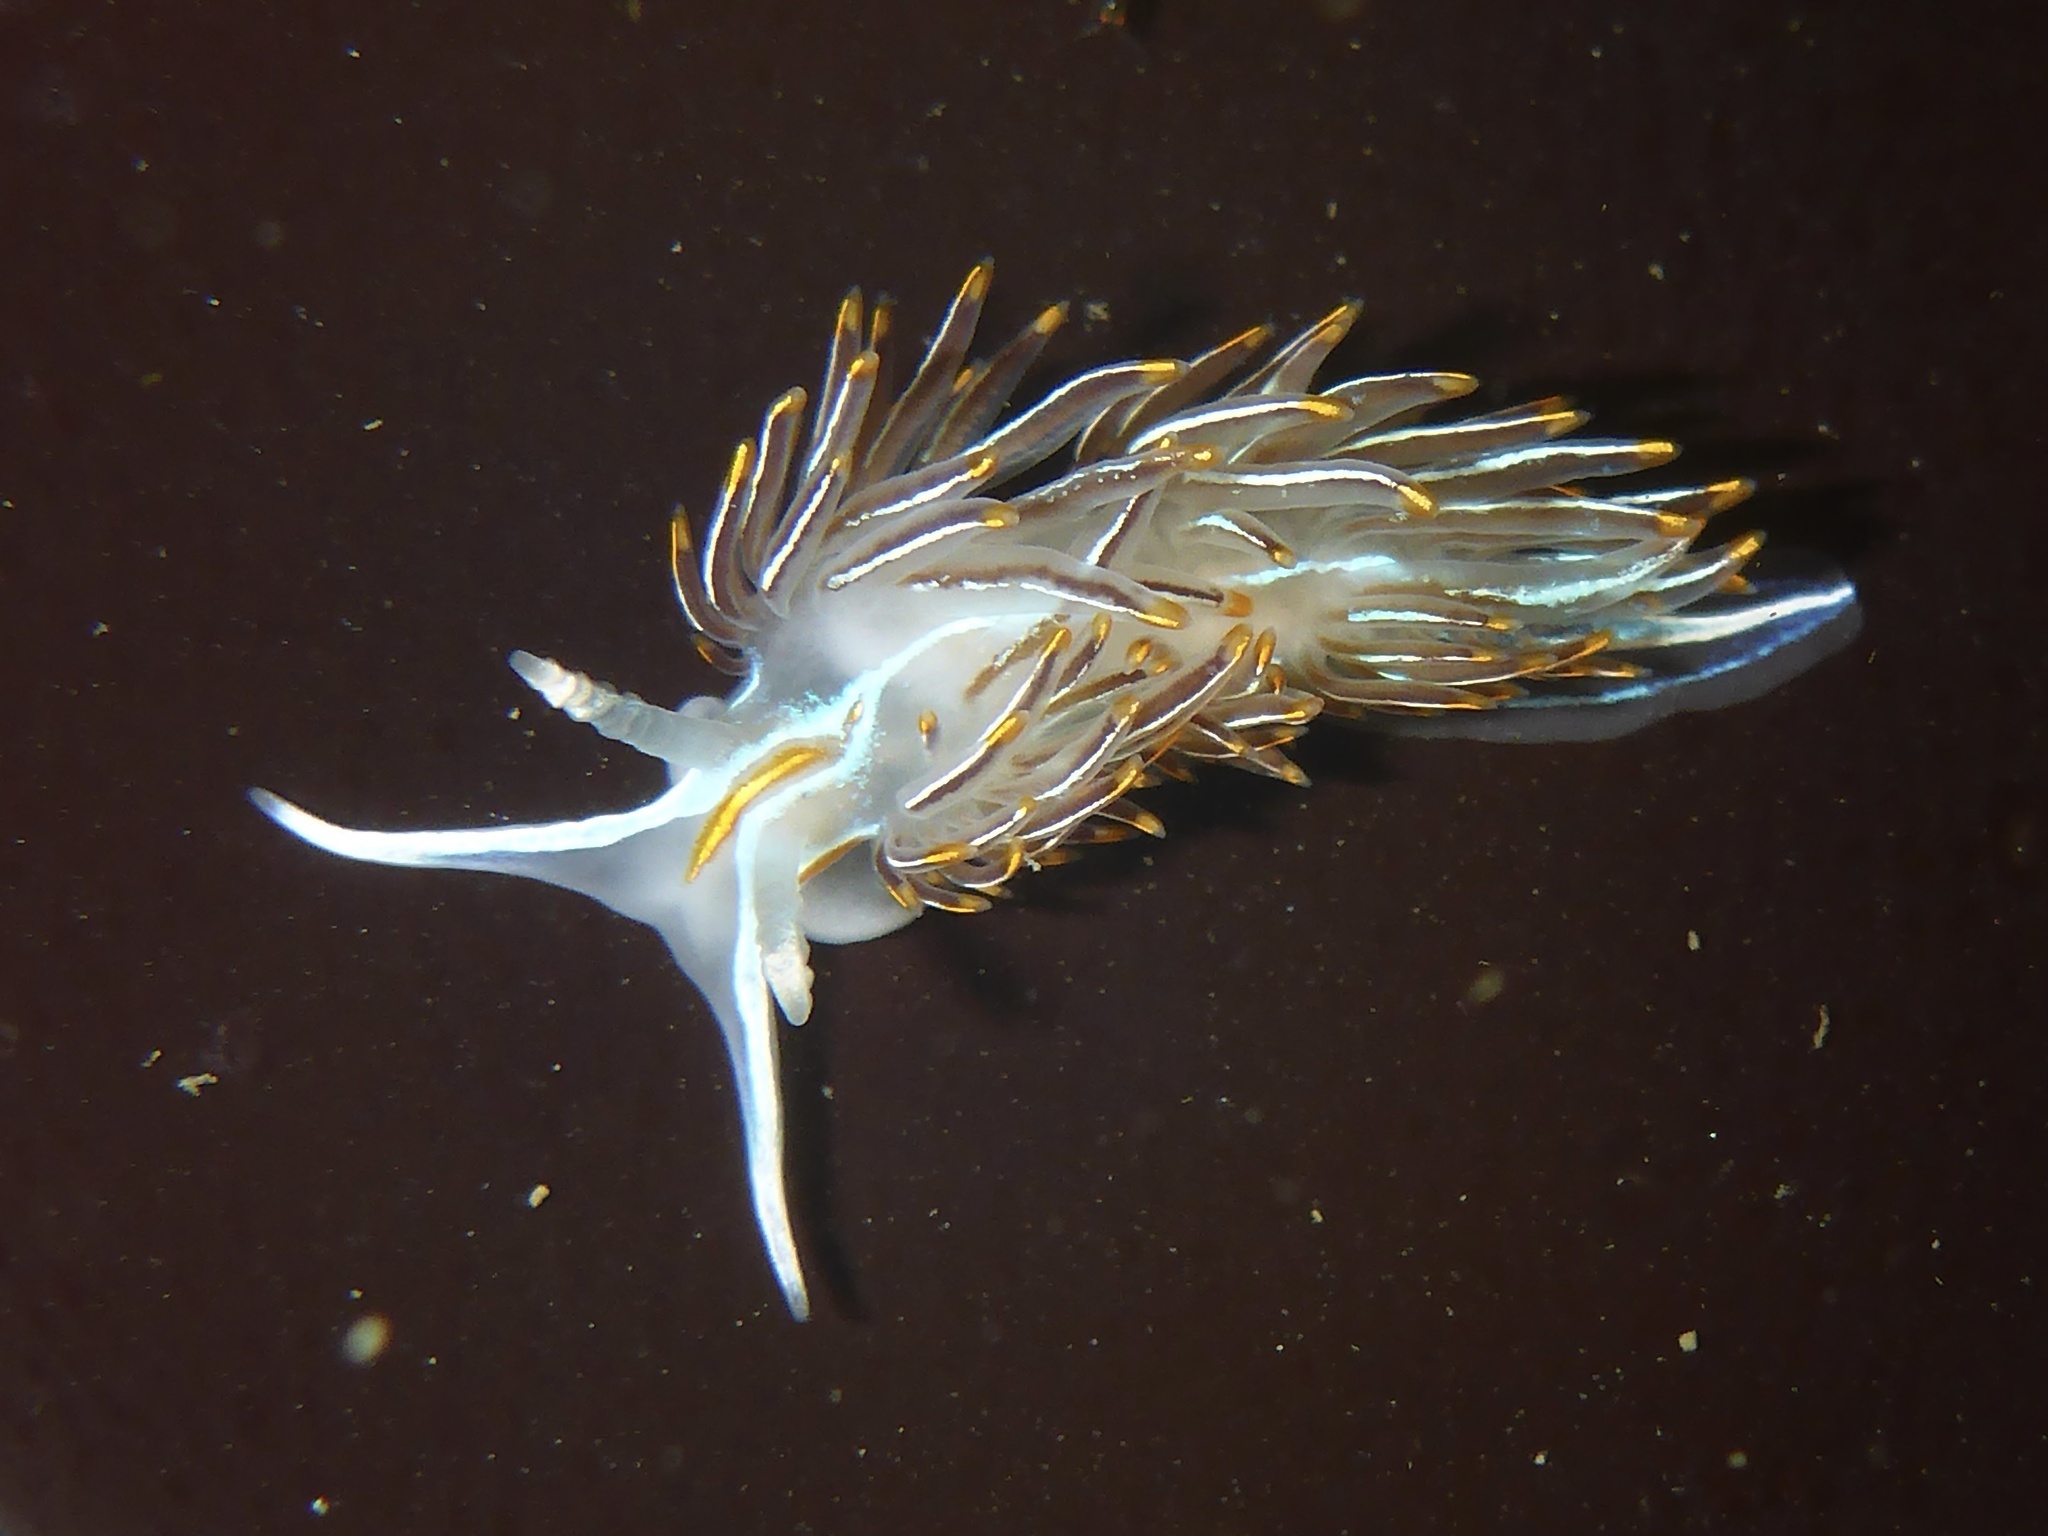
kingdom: Animalia
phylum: Mollusca
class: Gastropoda
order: Nudibranchia
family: Myrrhinidae
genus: Hermissenda
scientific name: Hermissenda crassicornis
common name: Hermissenda
